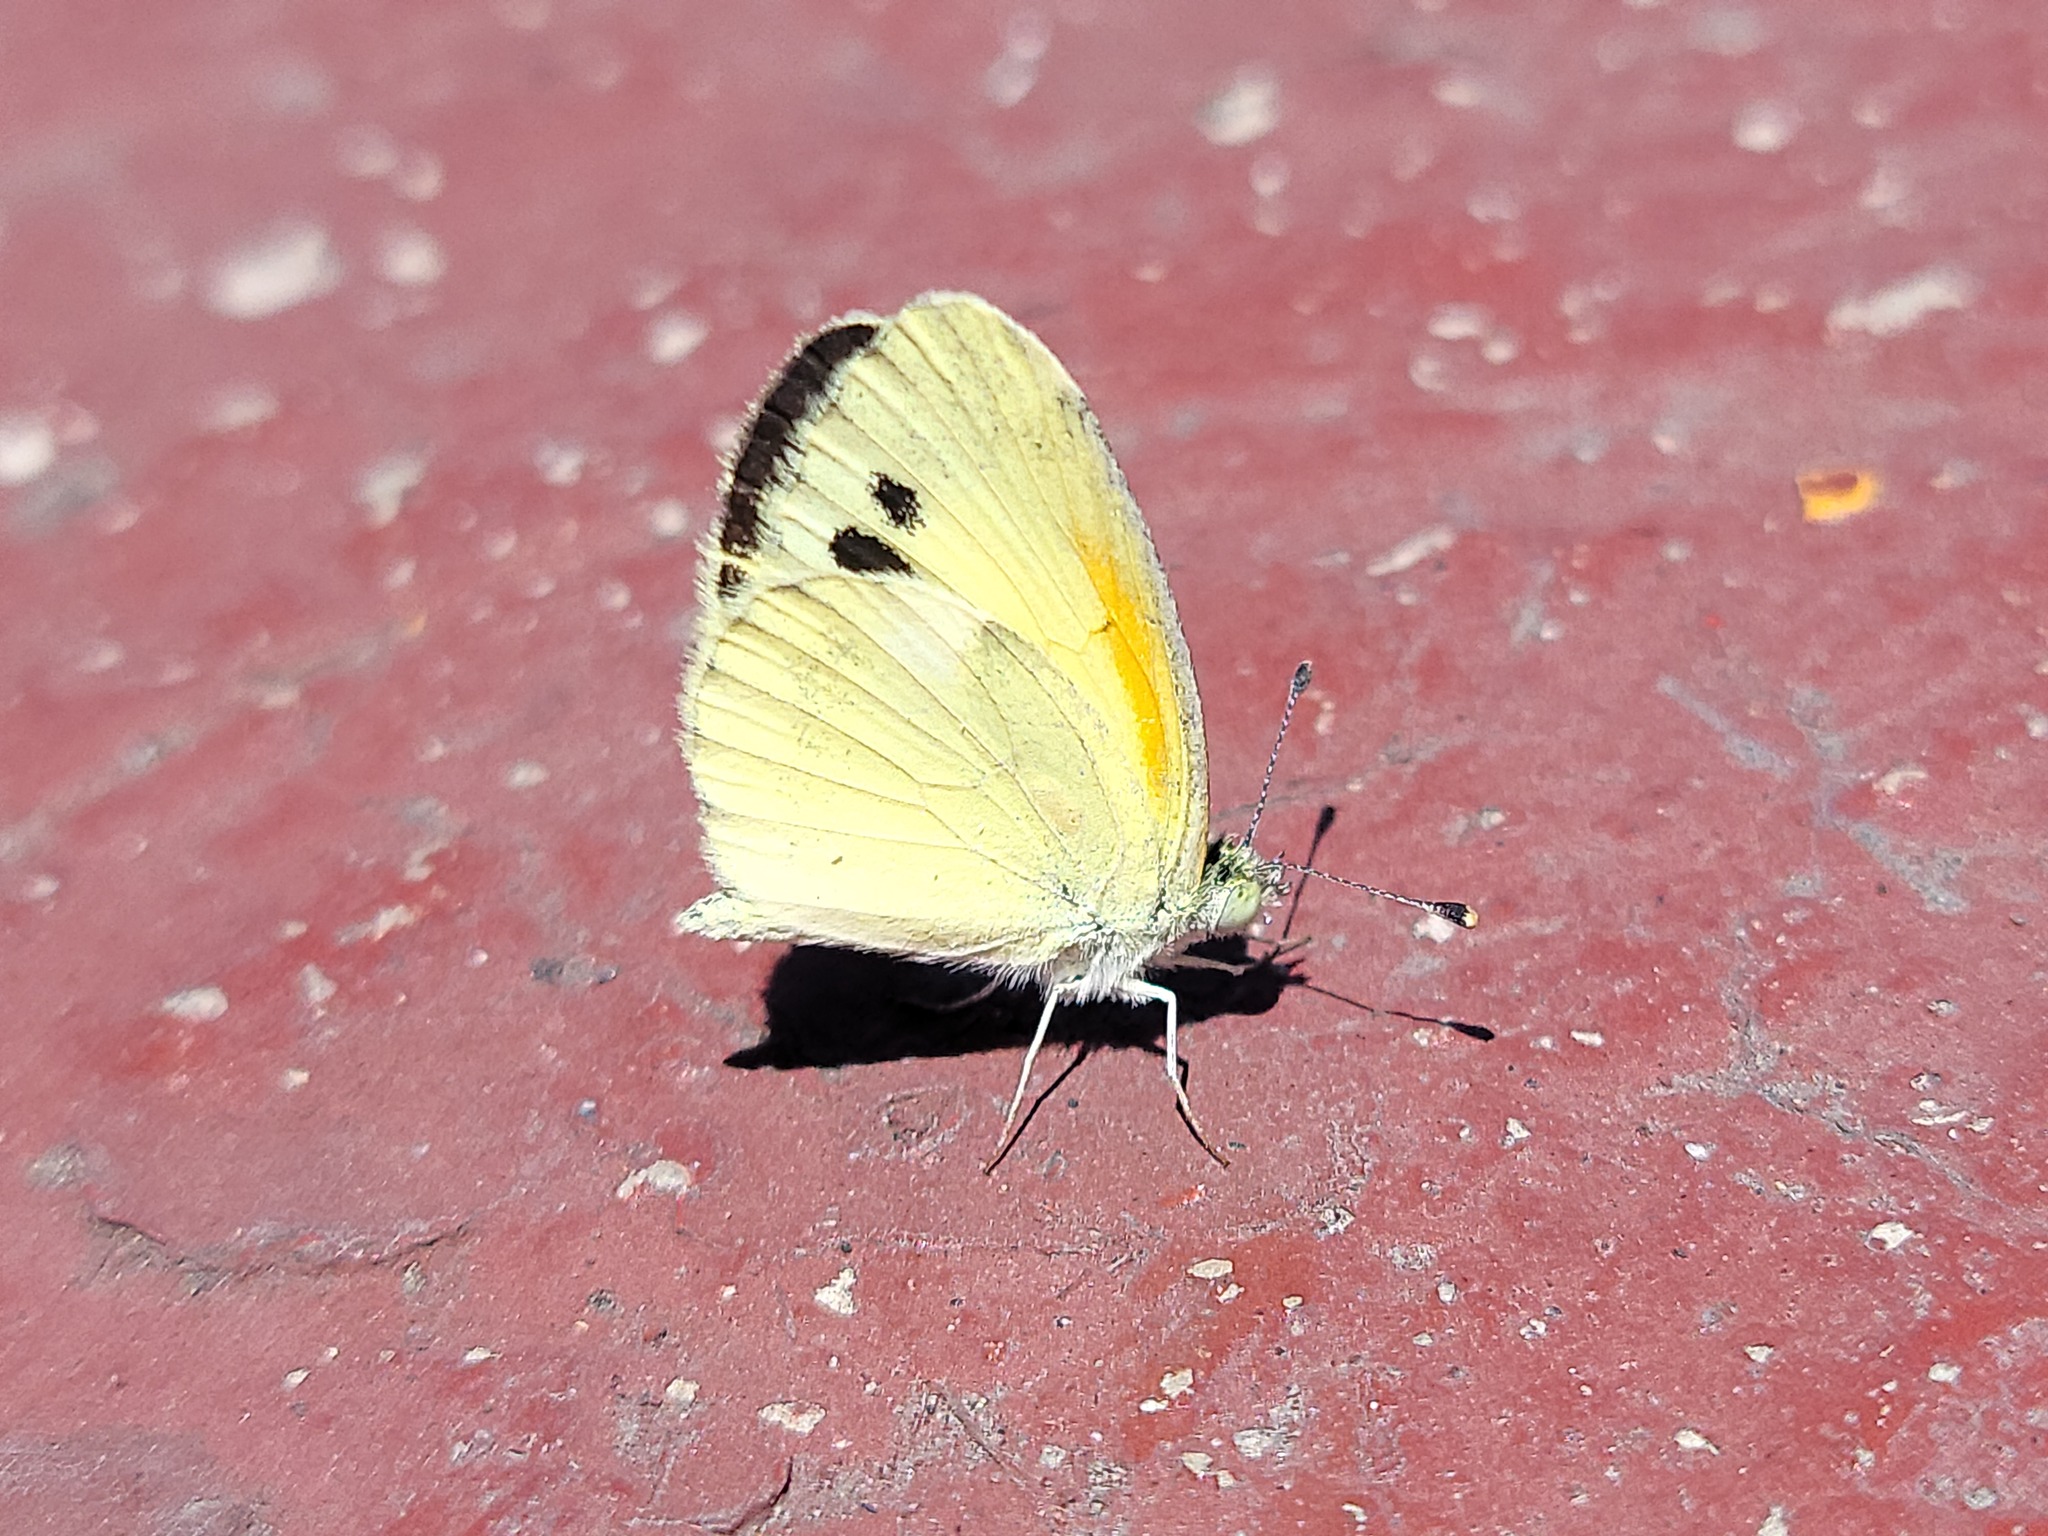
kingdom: Animalia
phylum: Arthropoda
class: Insecta
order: Lepidoptera
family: Pieridae
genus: Nathalis
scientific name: Nathalis iole
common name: Dainty sulphur
